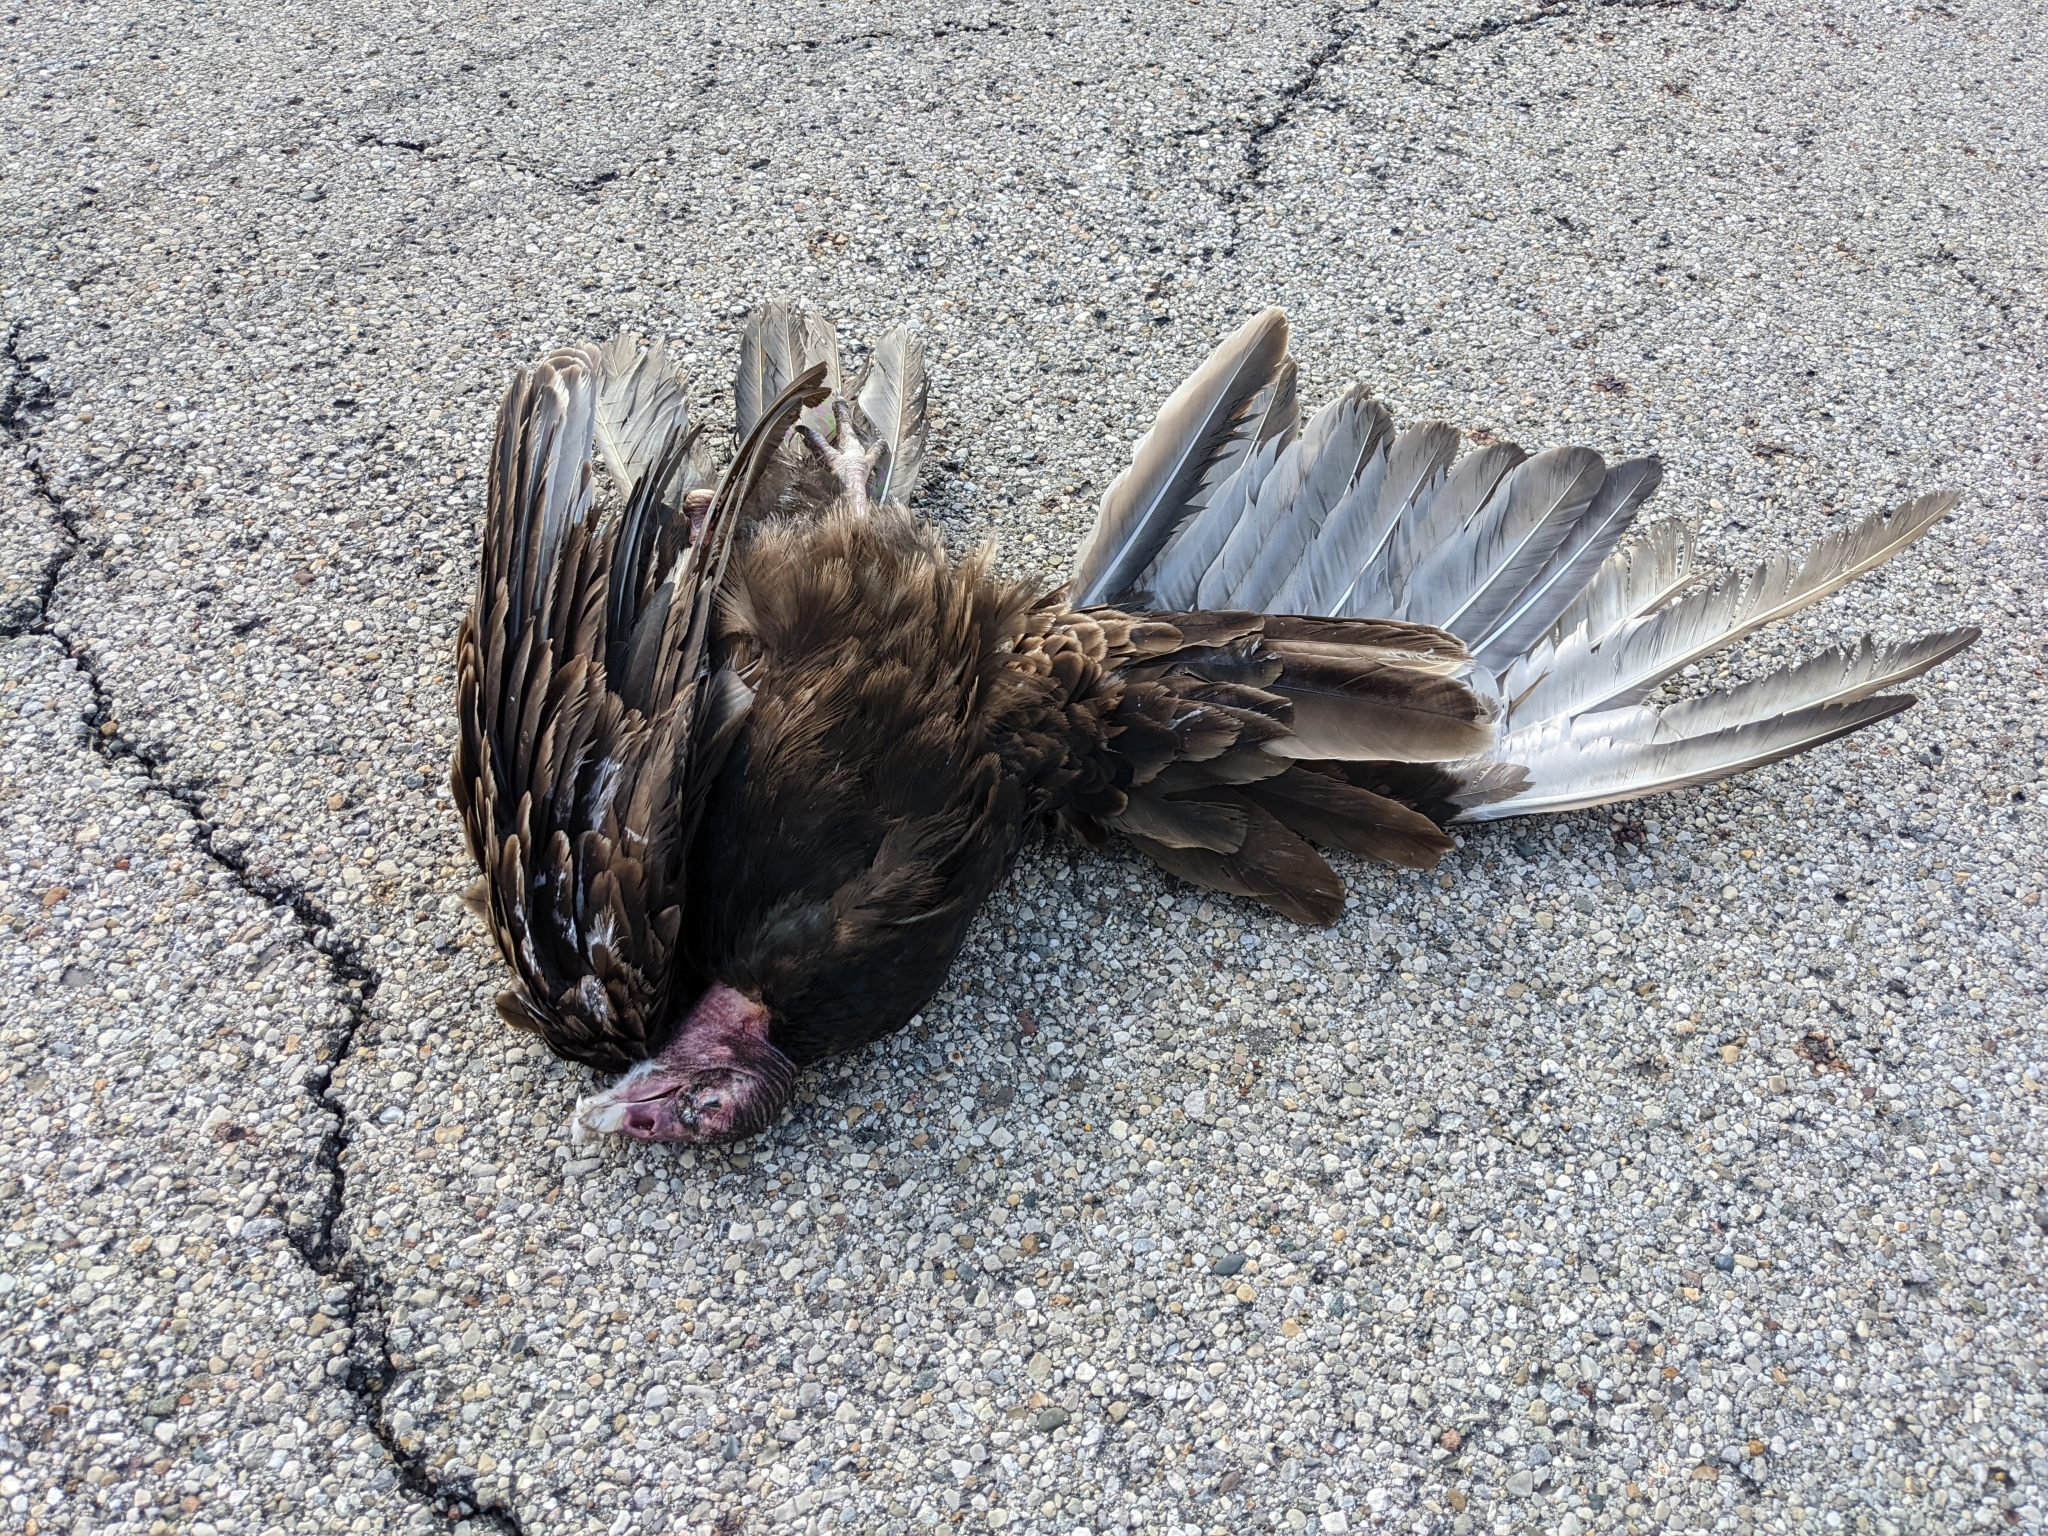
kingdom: Animalia
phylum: Chordata
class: Aves
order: Accipitriformes
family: Cathartidae
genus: Cathartes
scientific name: Cathartes aura
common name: Turkey vulture
